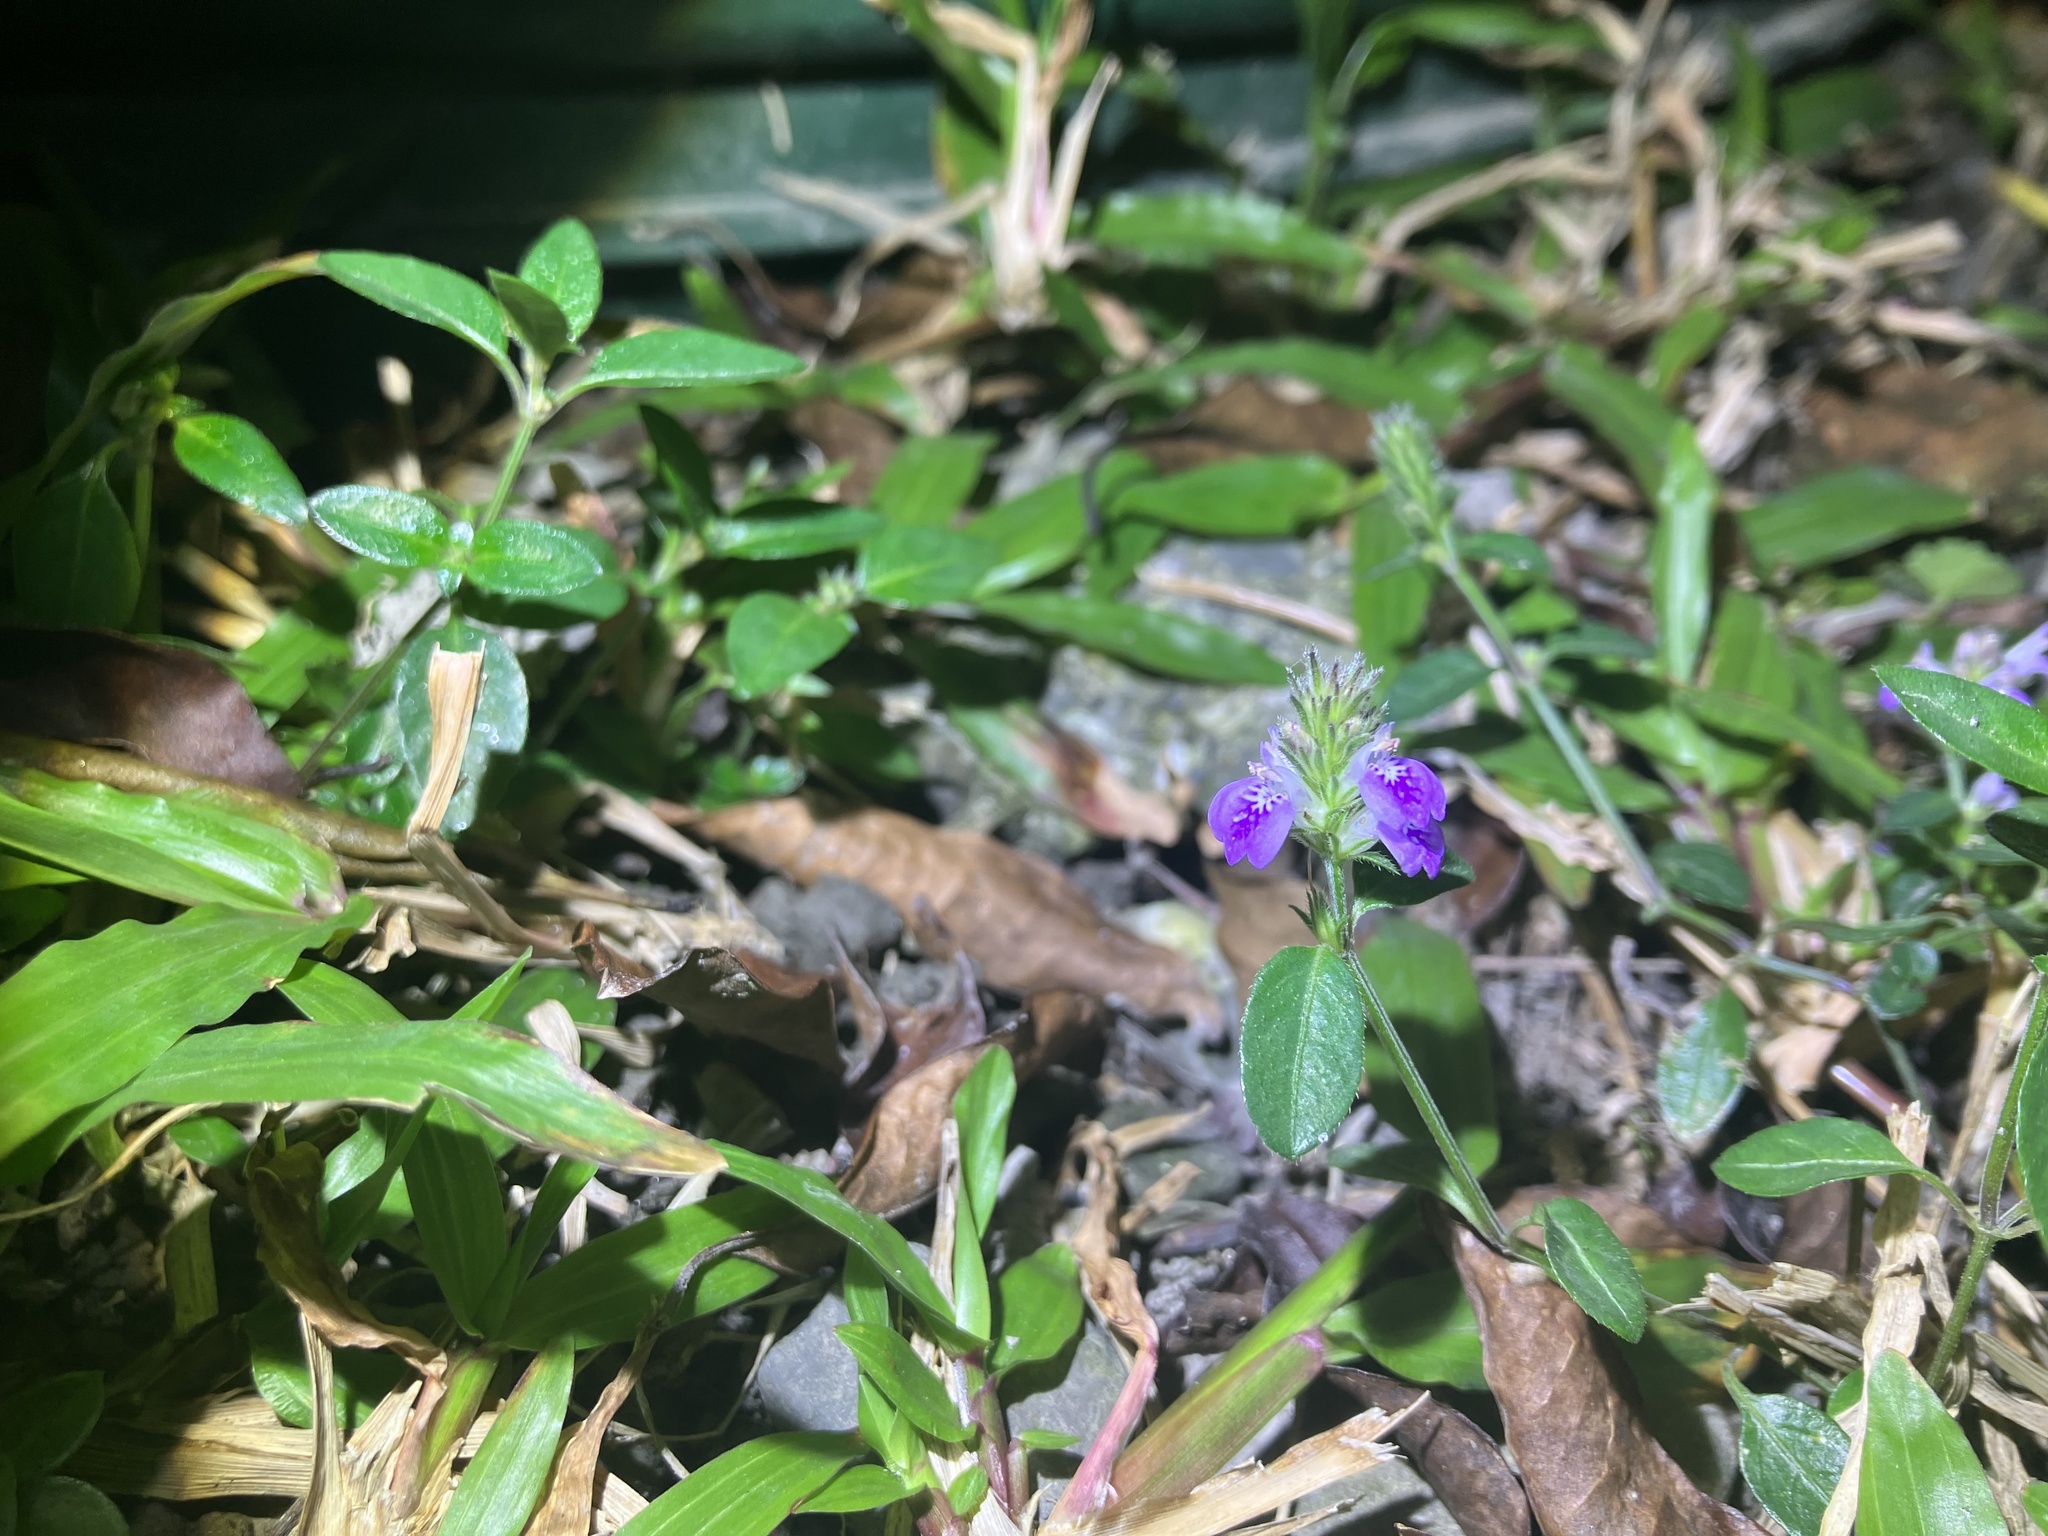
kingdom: Plantae
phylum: Tracheophyta
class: Magnoliopsida
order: Lamiales
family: Acanthaceae
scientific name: Acanthaceae
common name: Acanthaceae
